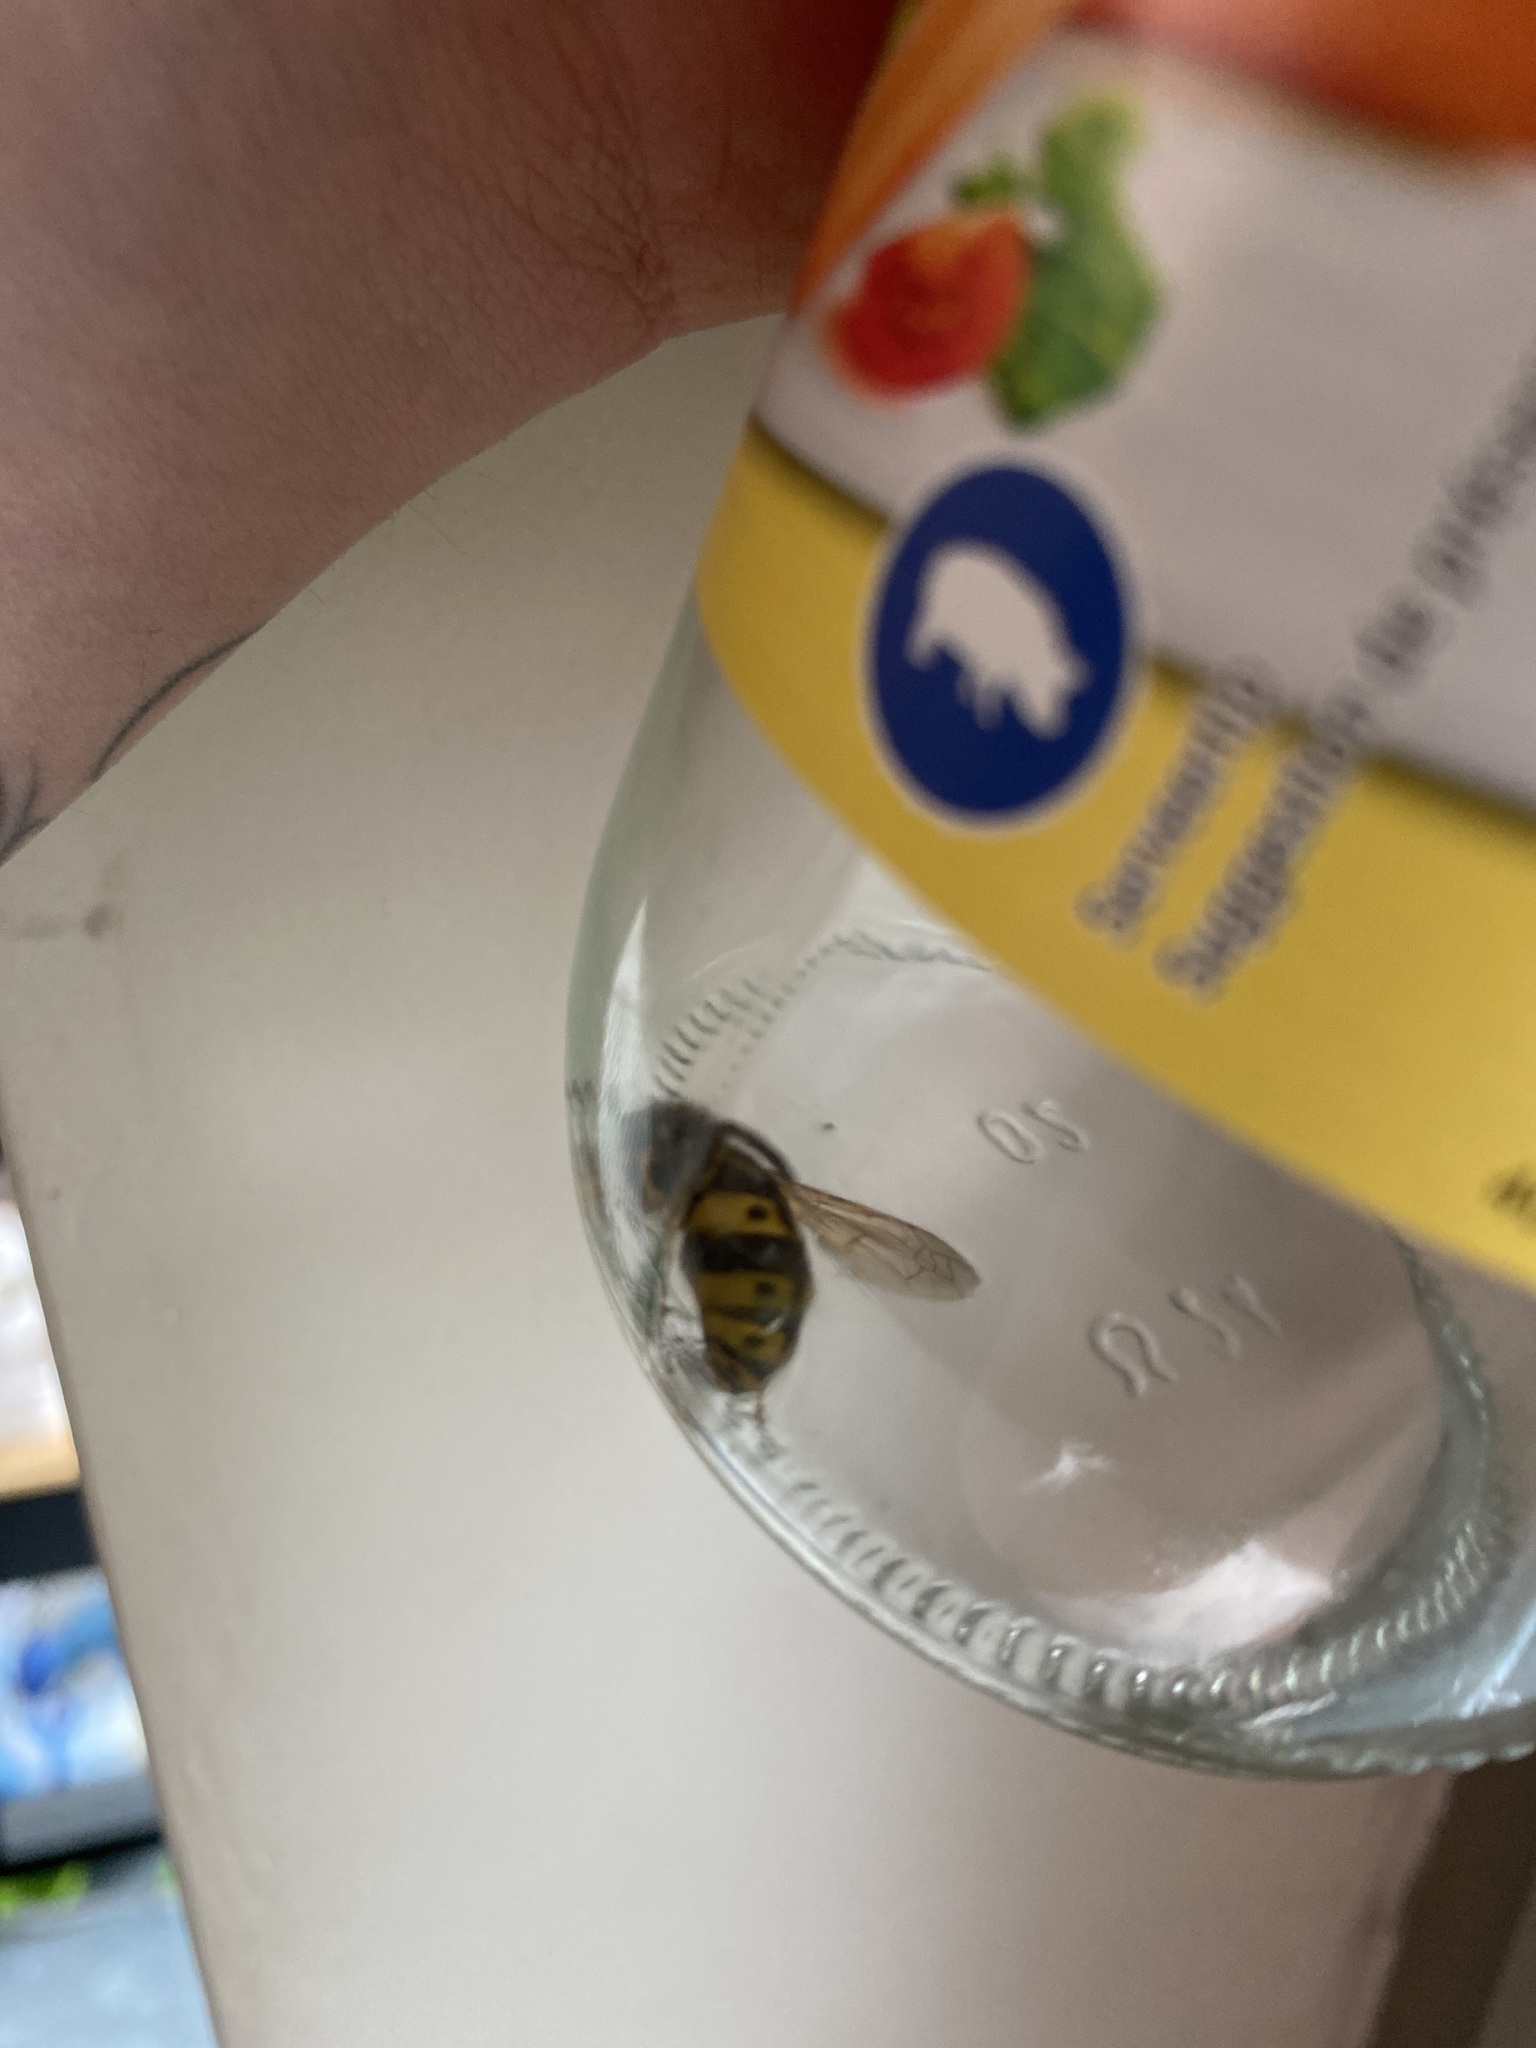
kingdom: Animalia
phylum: Arthropoda
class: Insecta
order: Hymenoptera
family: Vespidae
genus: Vespula
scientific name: Vespula germanica
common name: German wasp
